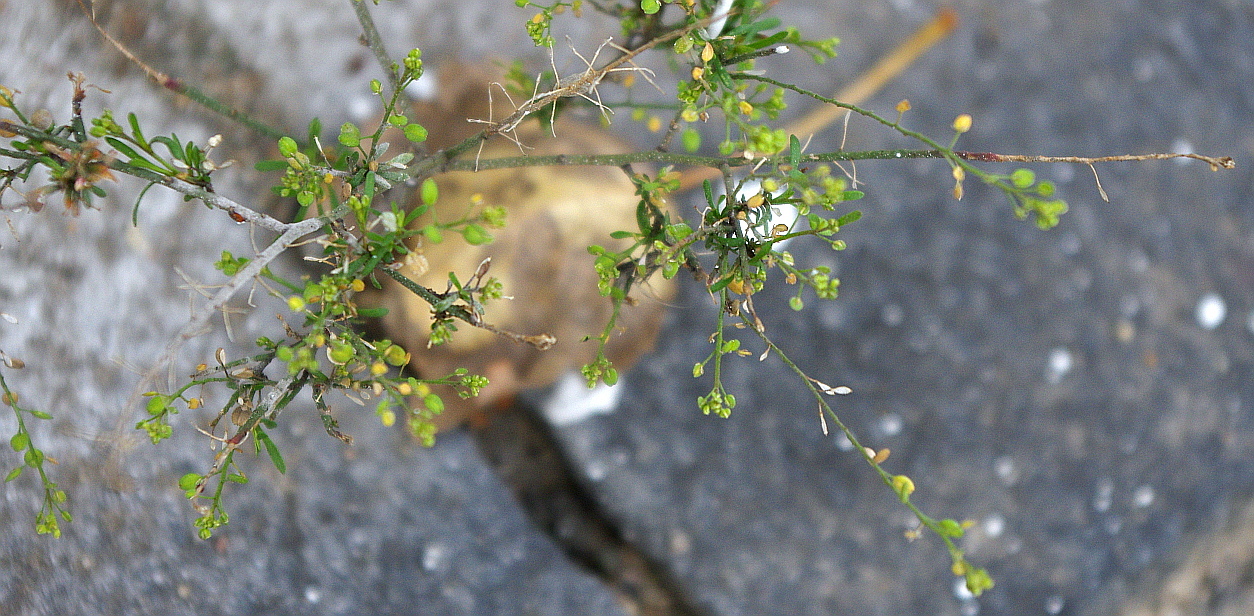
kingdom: Plantae
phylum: Tracheophyta
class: Magnoliopsida
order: Brassicales
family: Brassicaceae
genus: Lepidium
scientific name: Lepidium ruderale
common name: Narrow-leaved pepperwort
